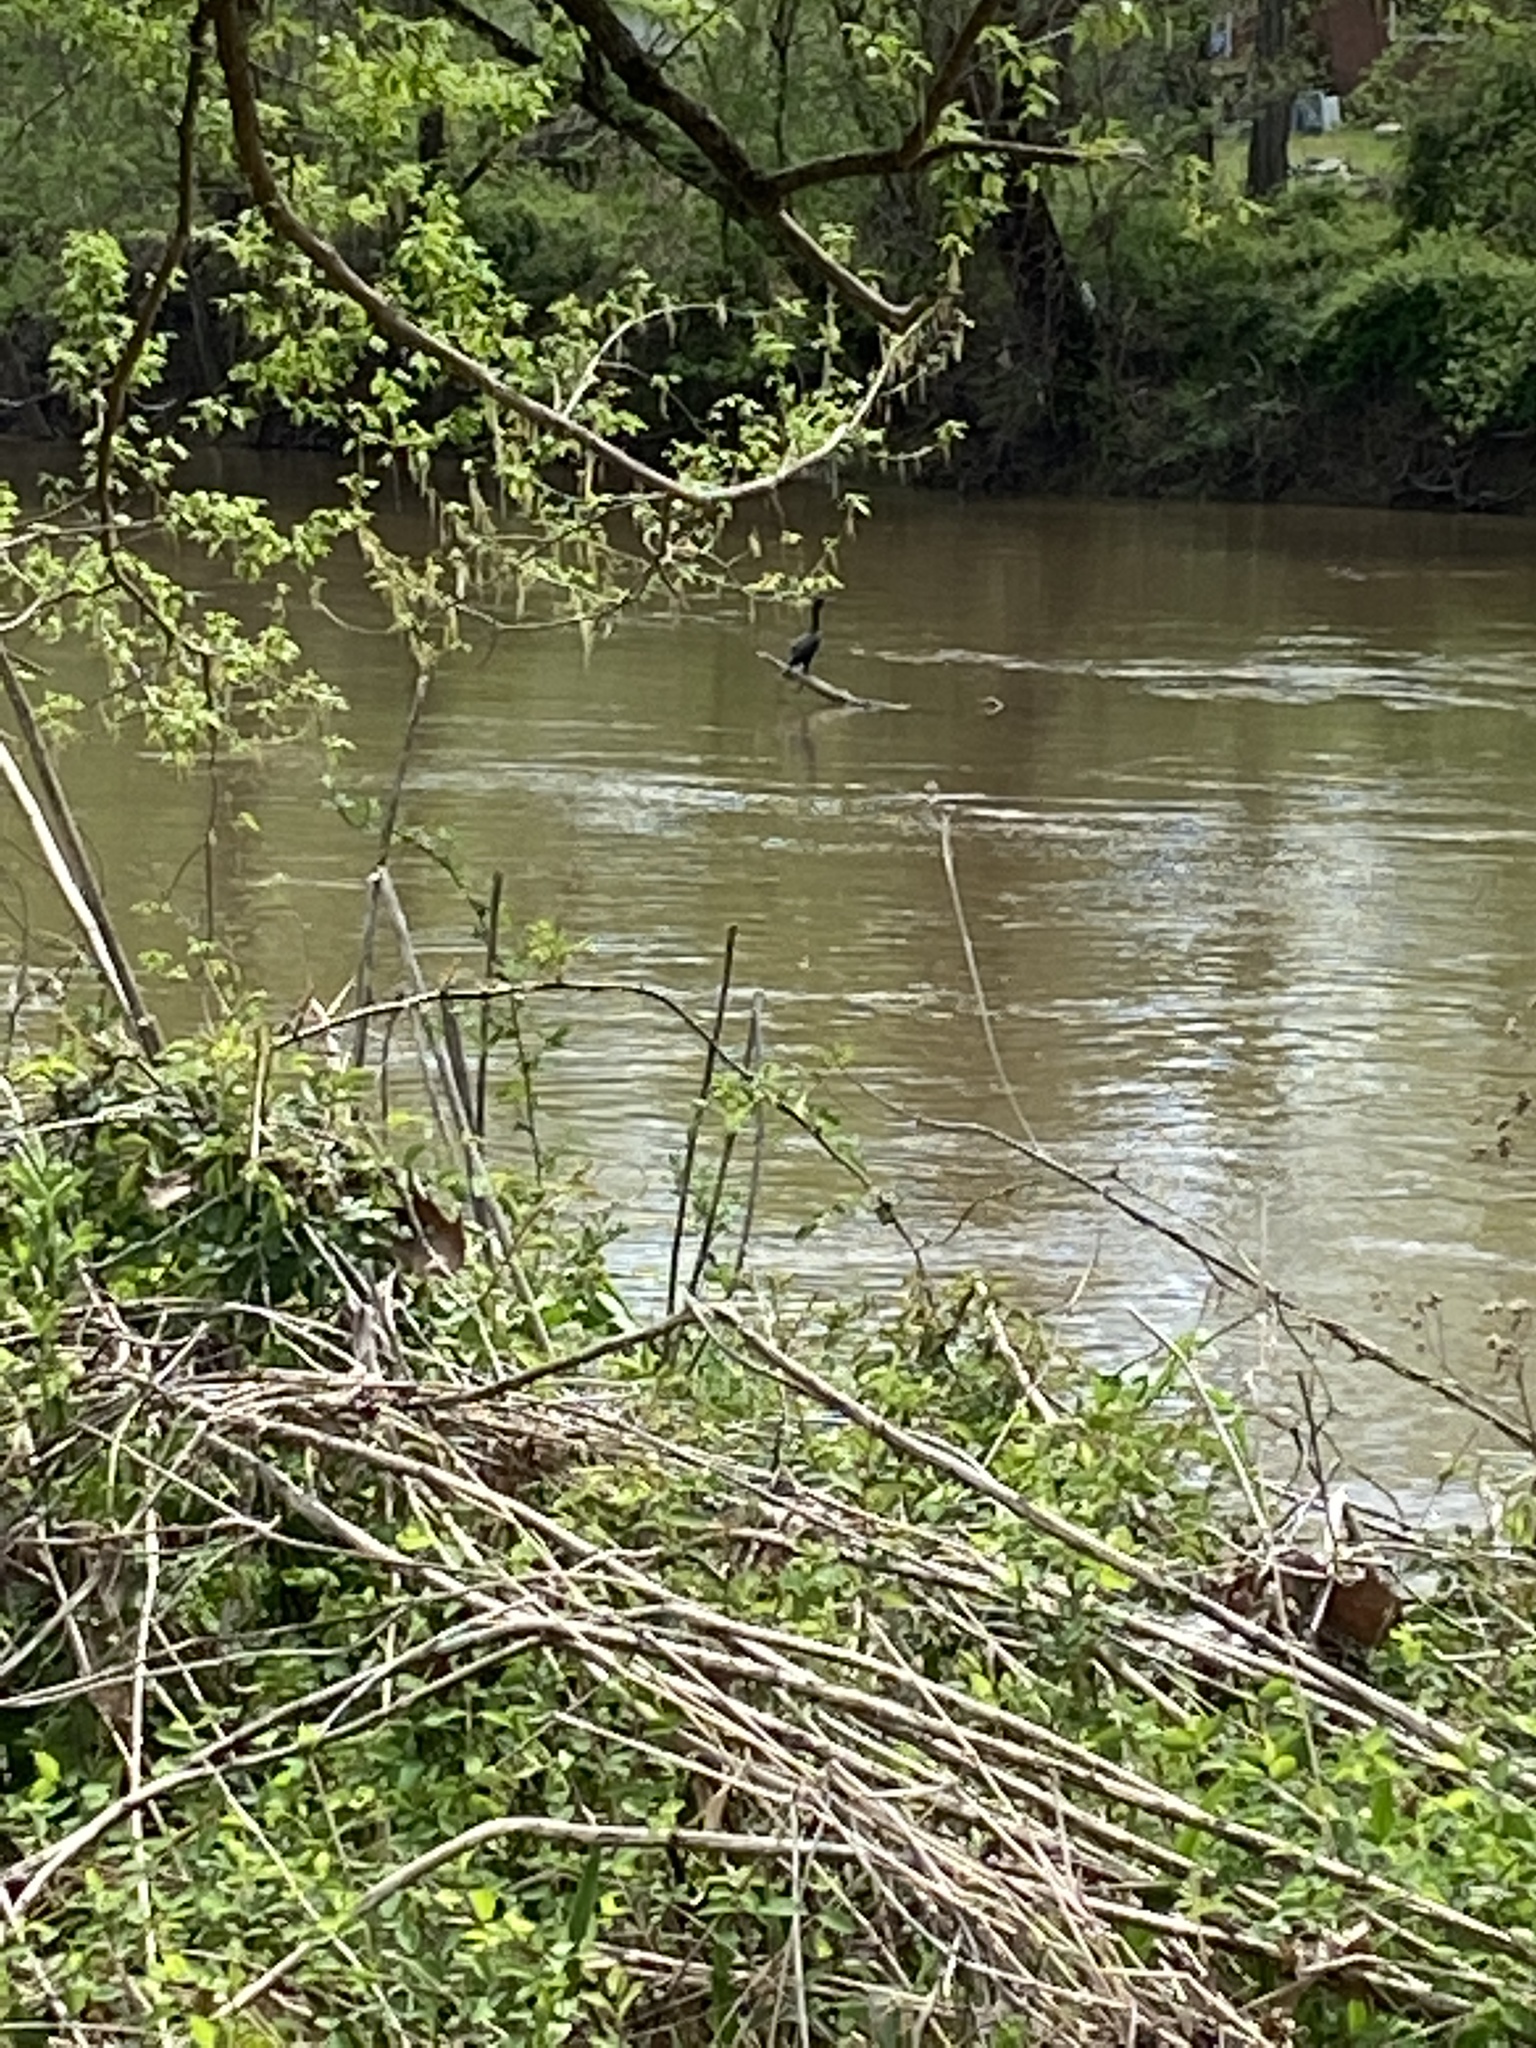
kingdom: Animalia
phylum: Chordata
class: Aves
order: Suliformes
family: Phalacrocoracidae
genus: Phalacrocorax
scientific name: Phalacrocorax auritus
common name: Double-crested cormorant
